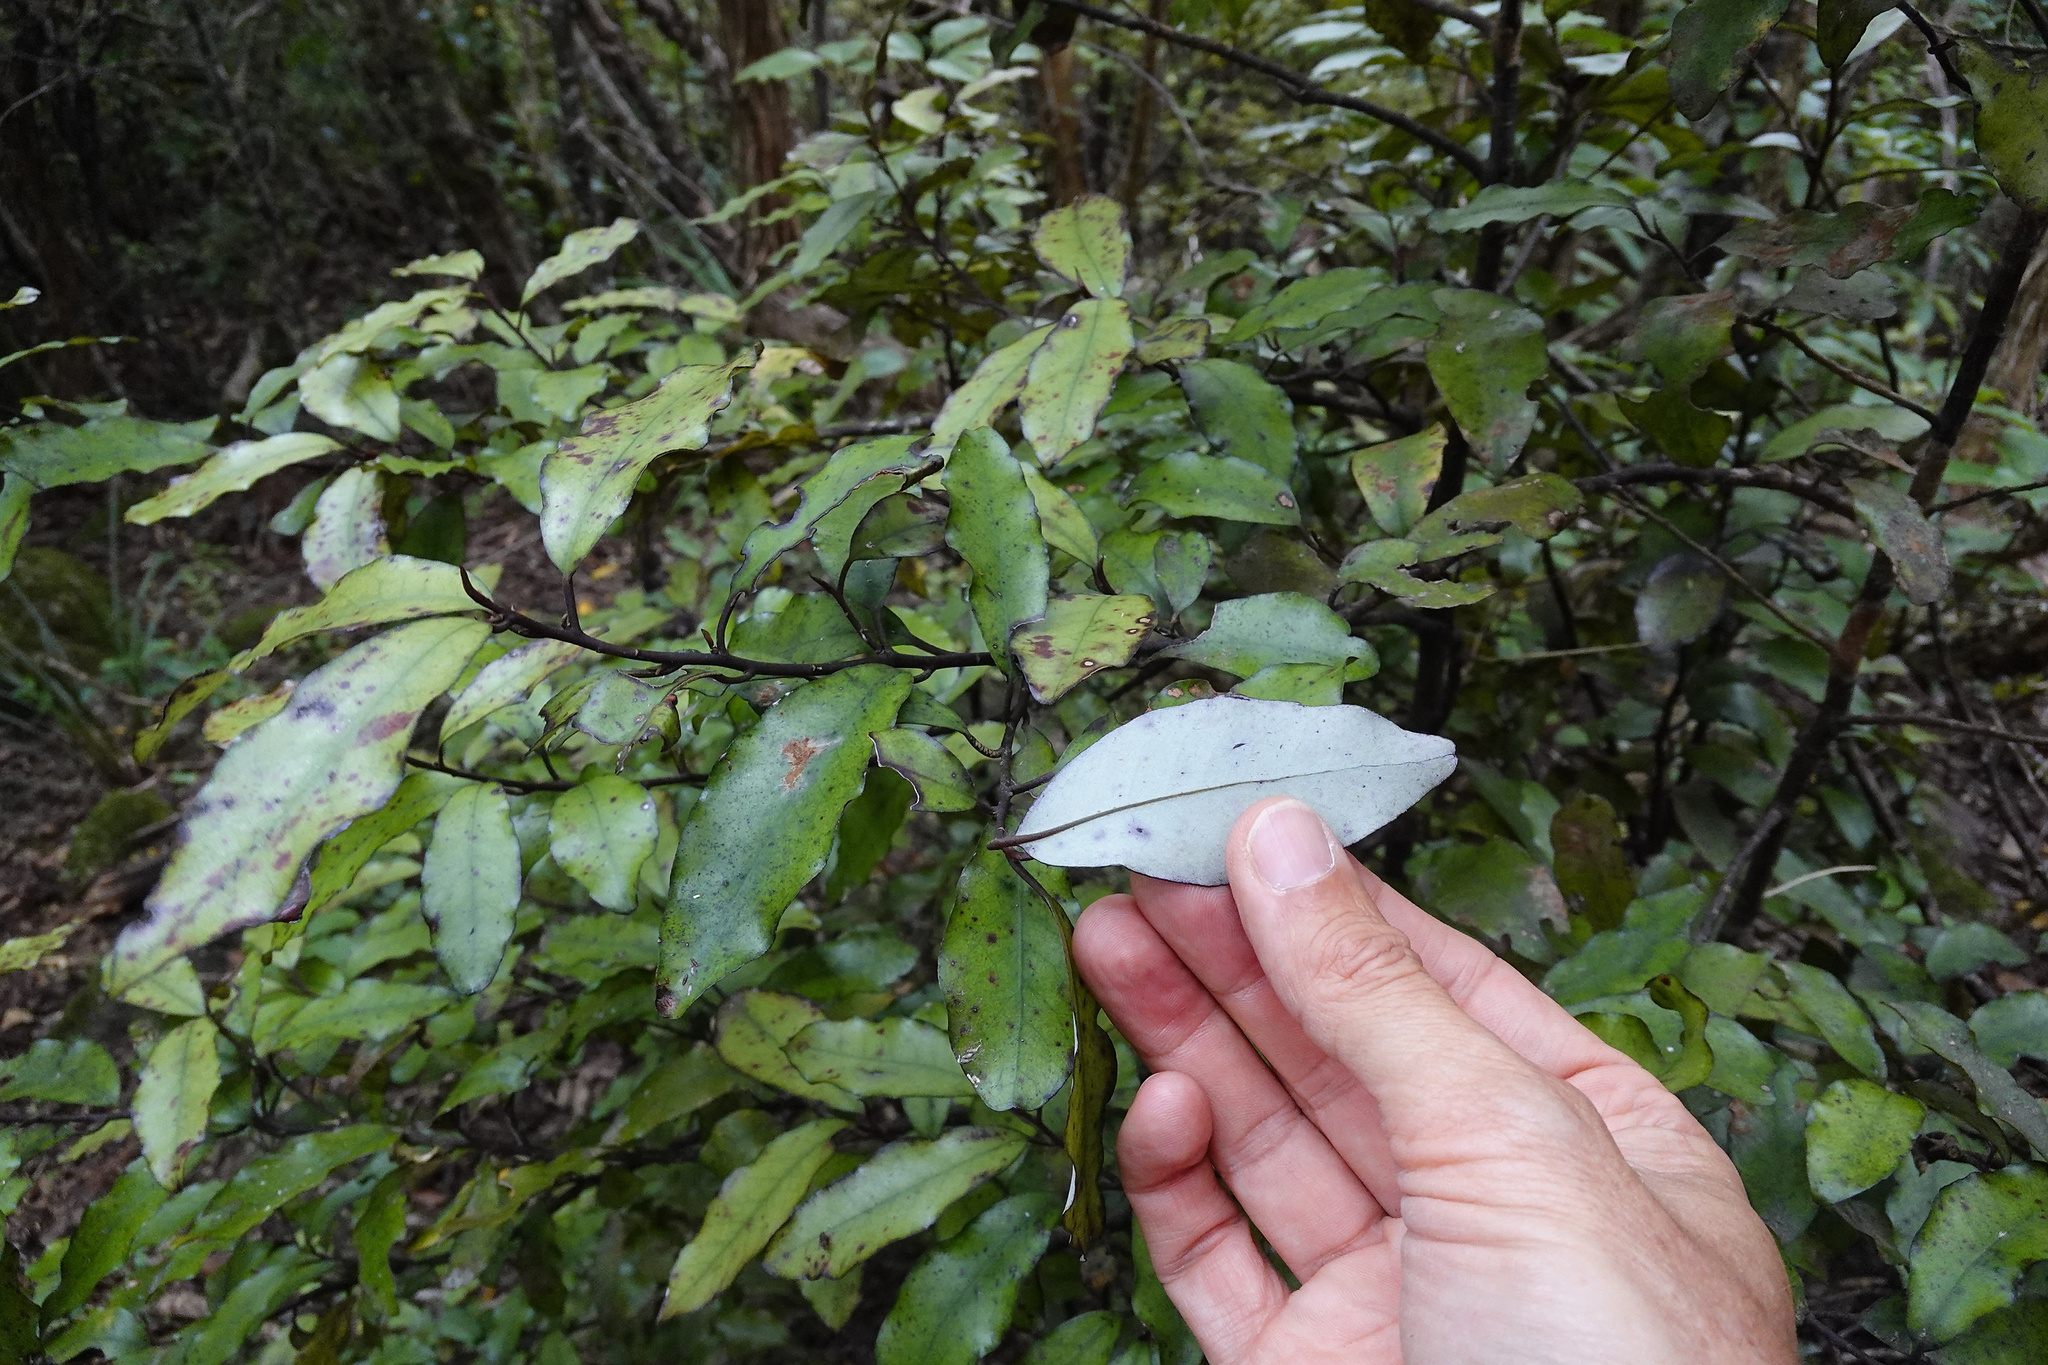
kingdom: Plantae
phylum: Tracheophyta
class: Magnoliopsida
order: Canellales
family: Winteraceae
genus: Pseudowintera
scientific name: Pseudowintera colorata
